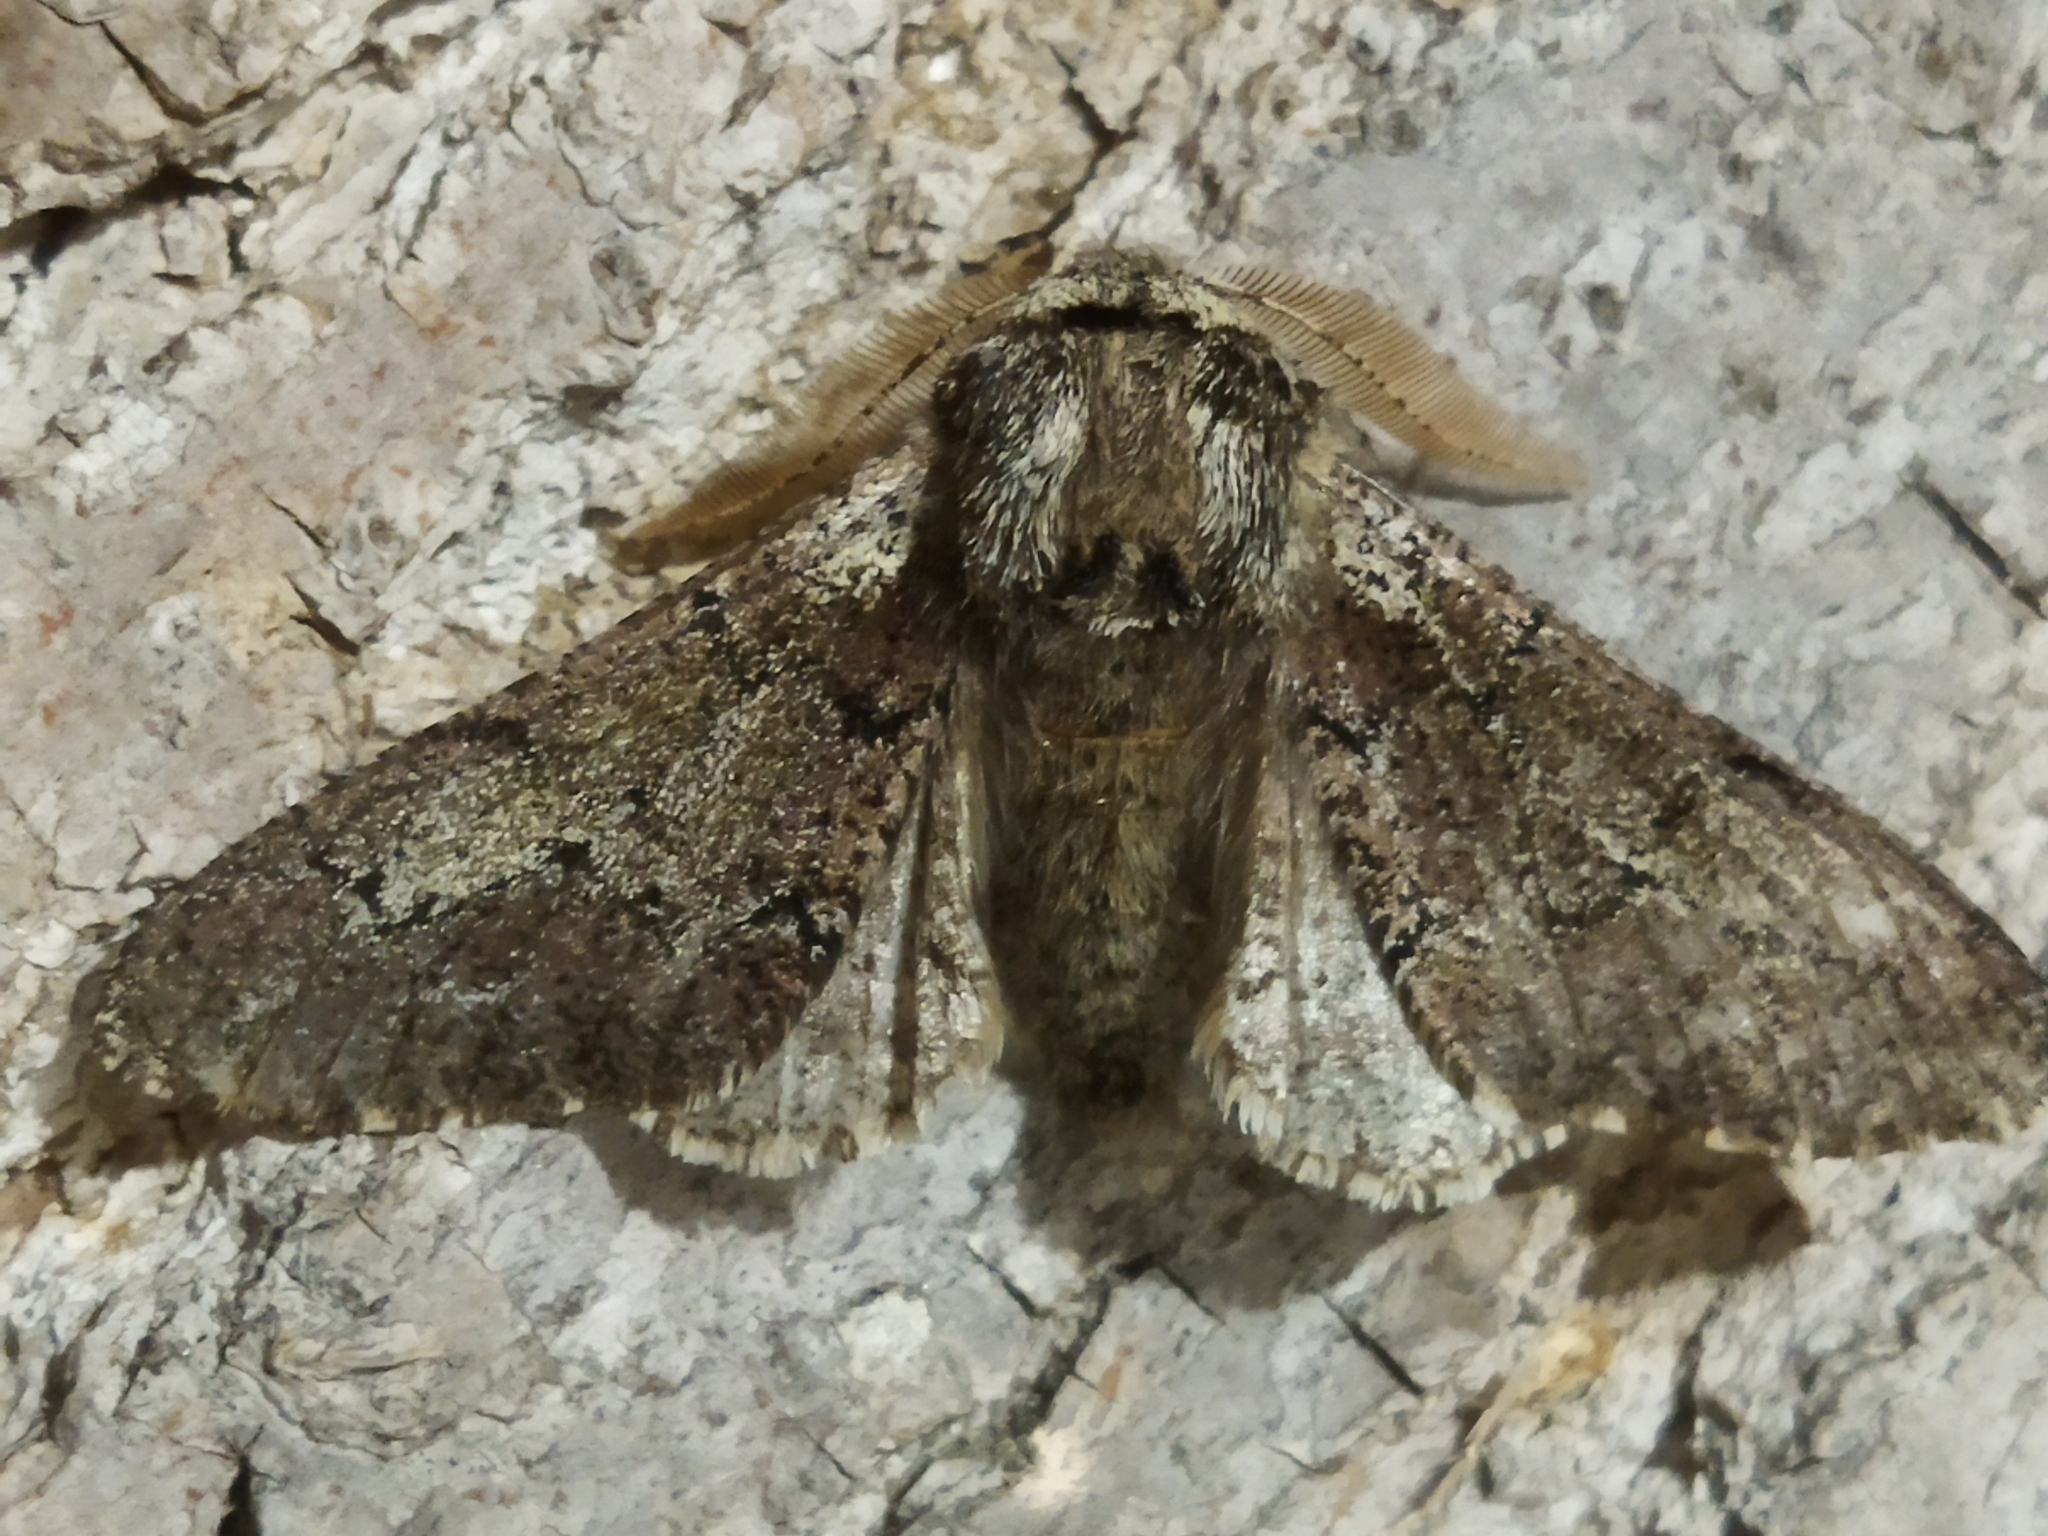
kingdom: Animalia
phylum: Arthropoda
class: Insecta
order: Lepidoptera
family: Geometridae
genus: Biston
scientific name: Biston strataria
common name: Oak beauty
